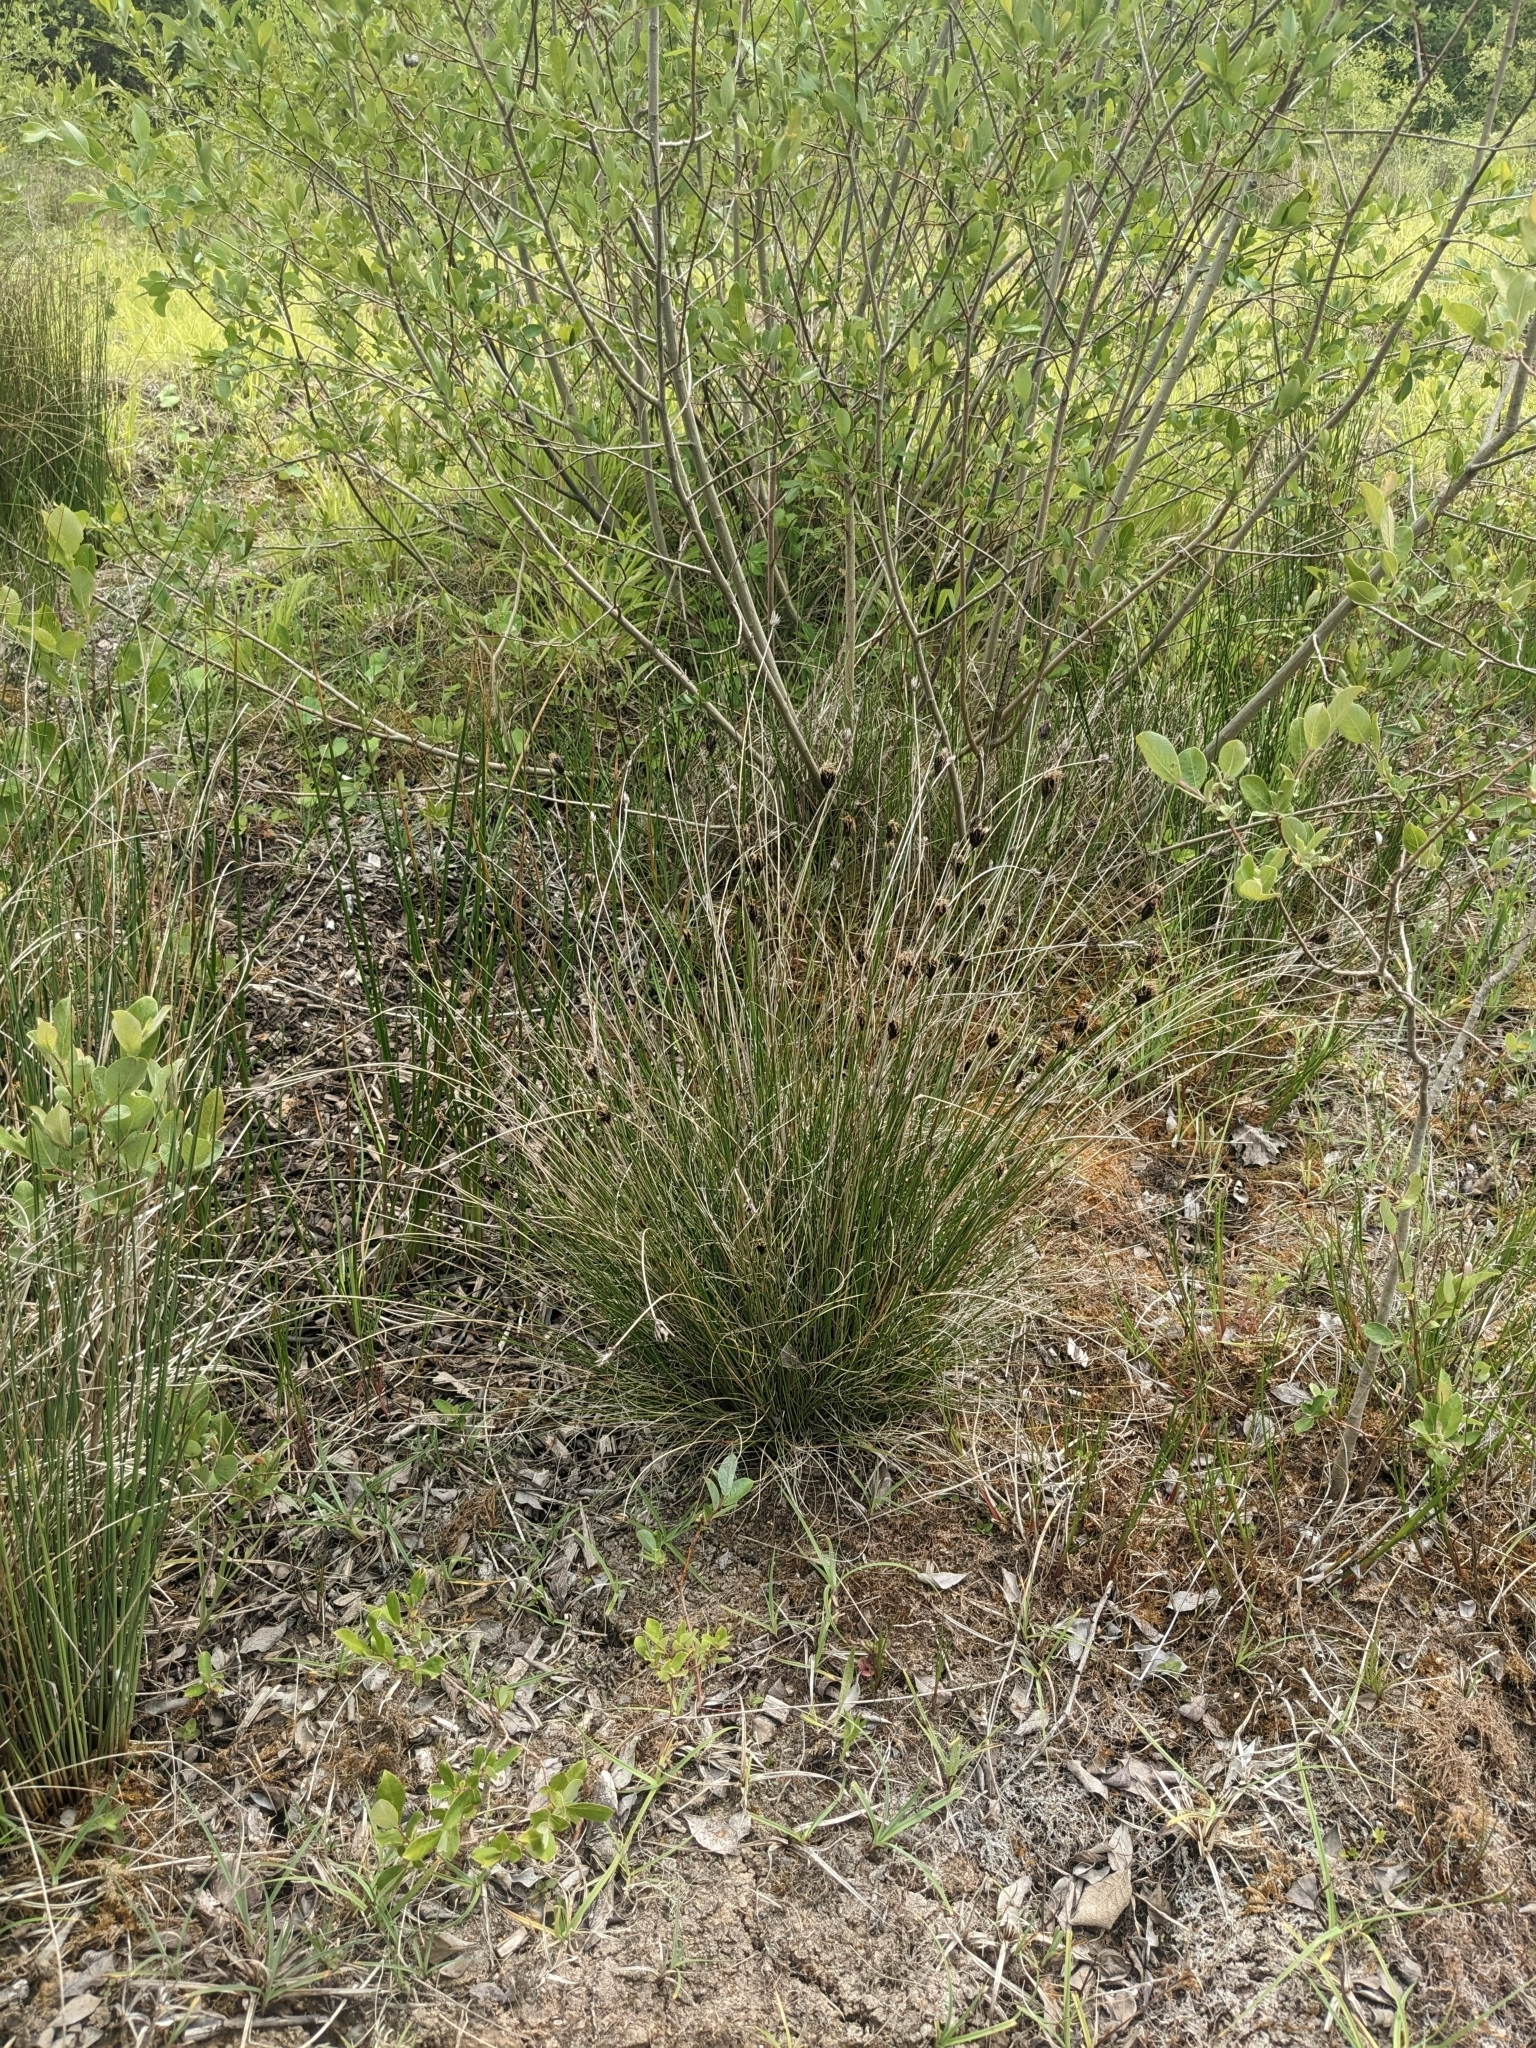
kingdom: Plantae
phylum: Tracheophyta
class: Liliopsida
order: Poales
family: Cyperaceae
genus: Schoenus
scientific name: Schoenus nigricans
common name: Black bog-rush
